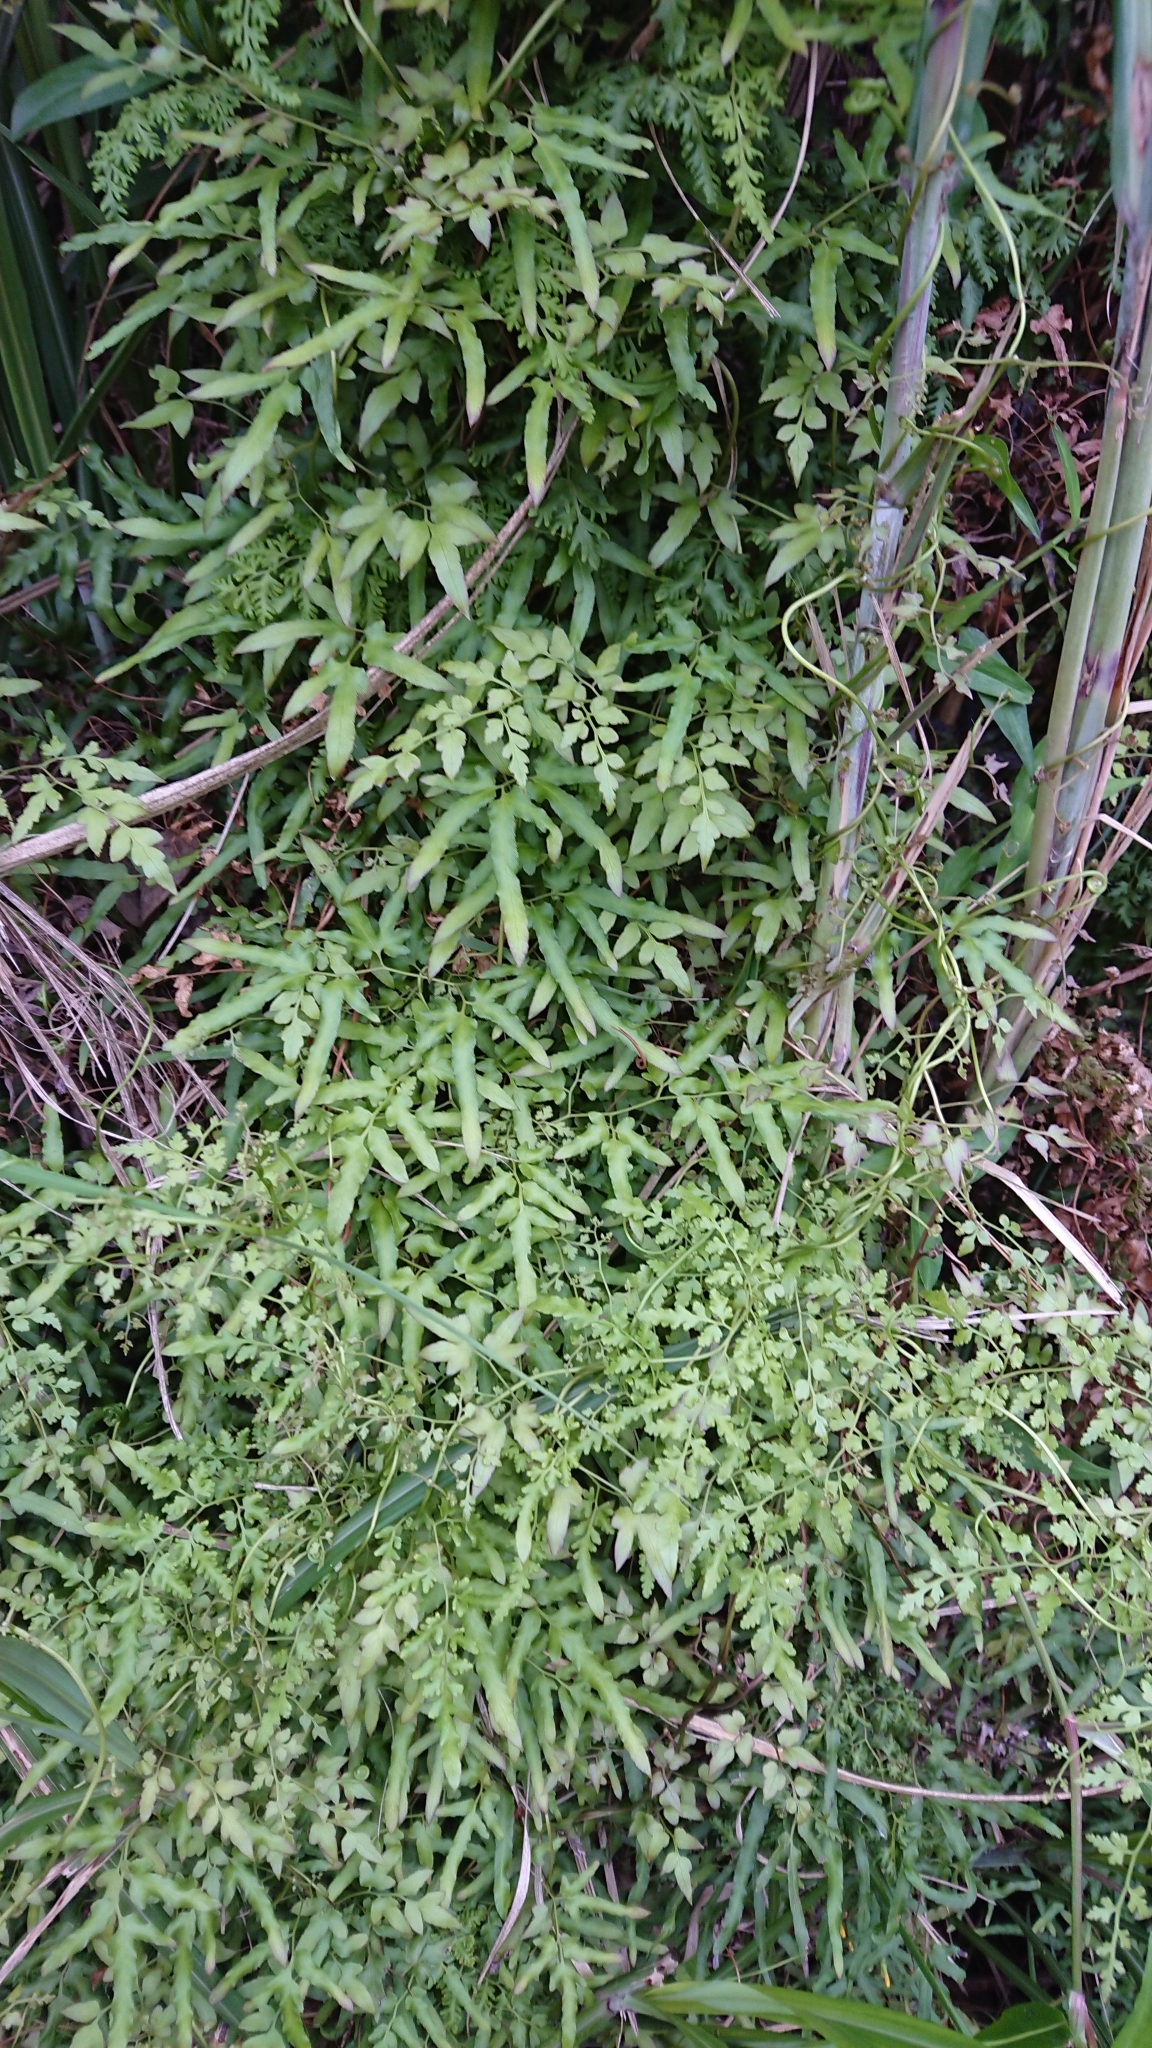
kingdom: Plantae
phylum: Tracheophyta
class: Polypodiopsida
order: Schizaeales
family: Lygodiaceae
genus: Lygodium
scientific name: Lygodium japonicum
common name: Japanese climbing fern
